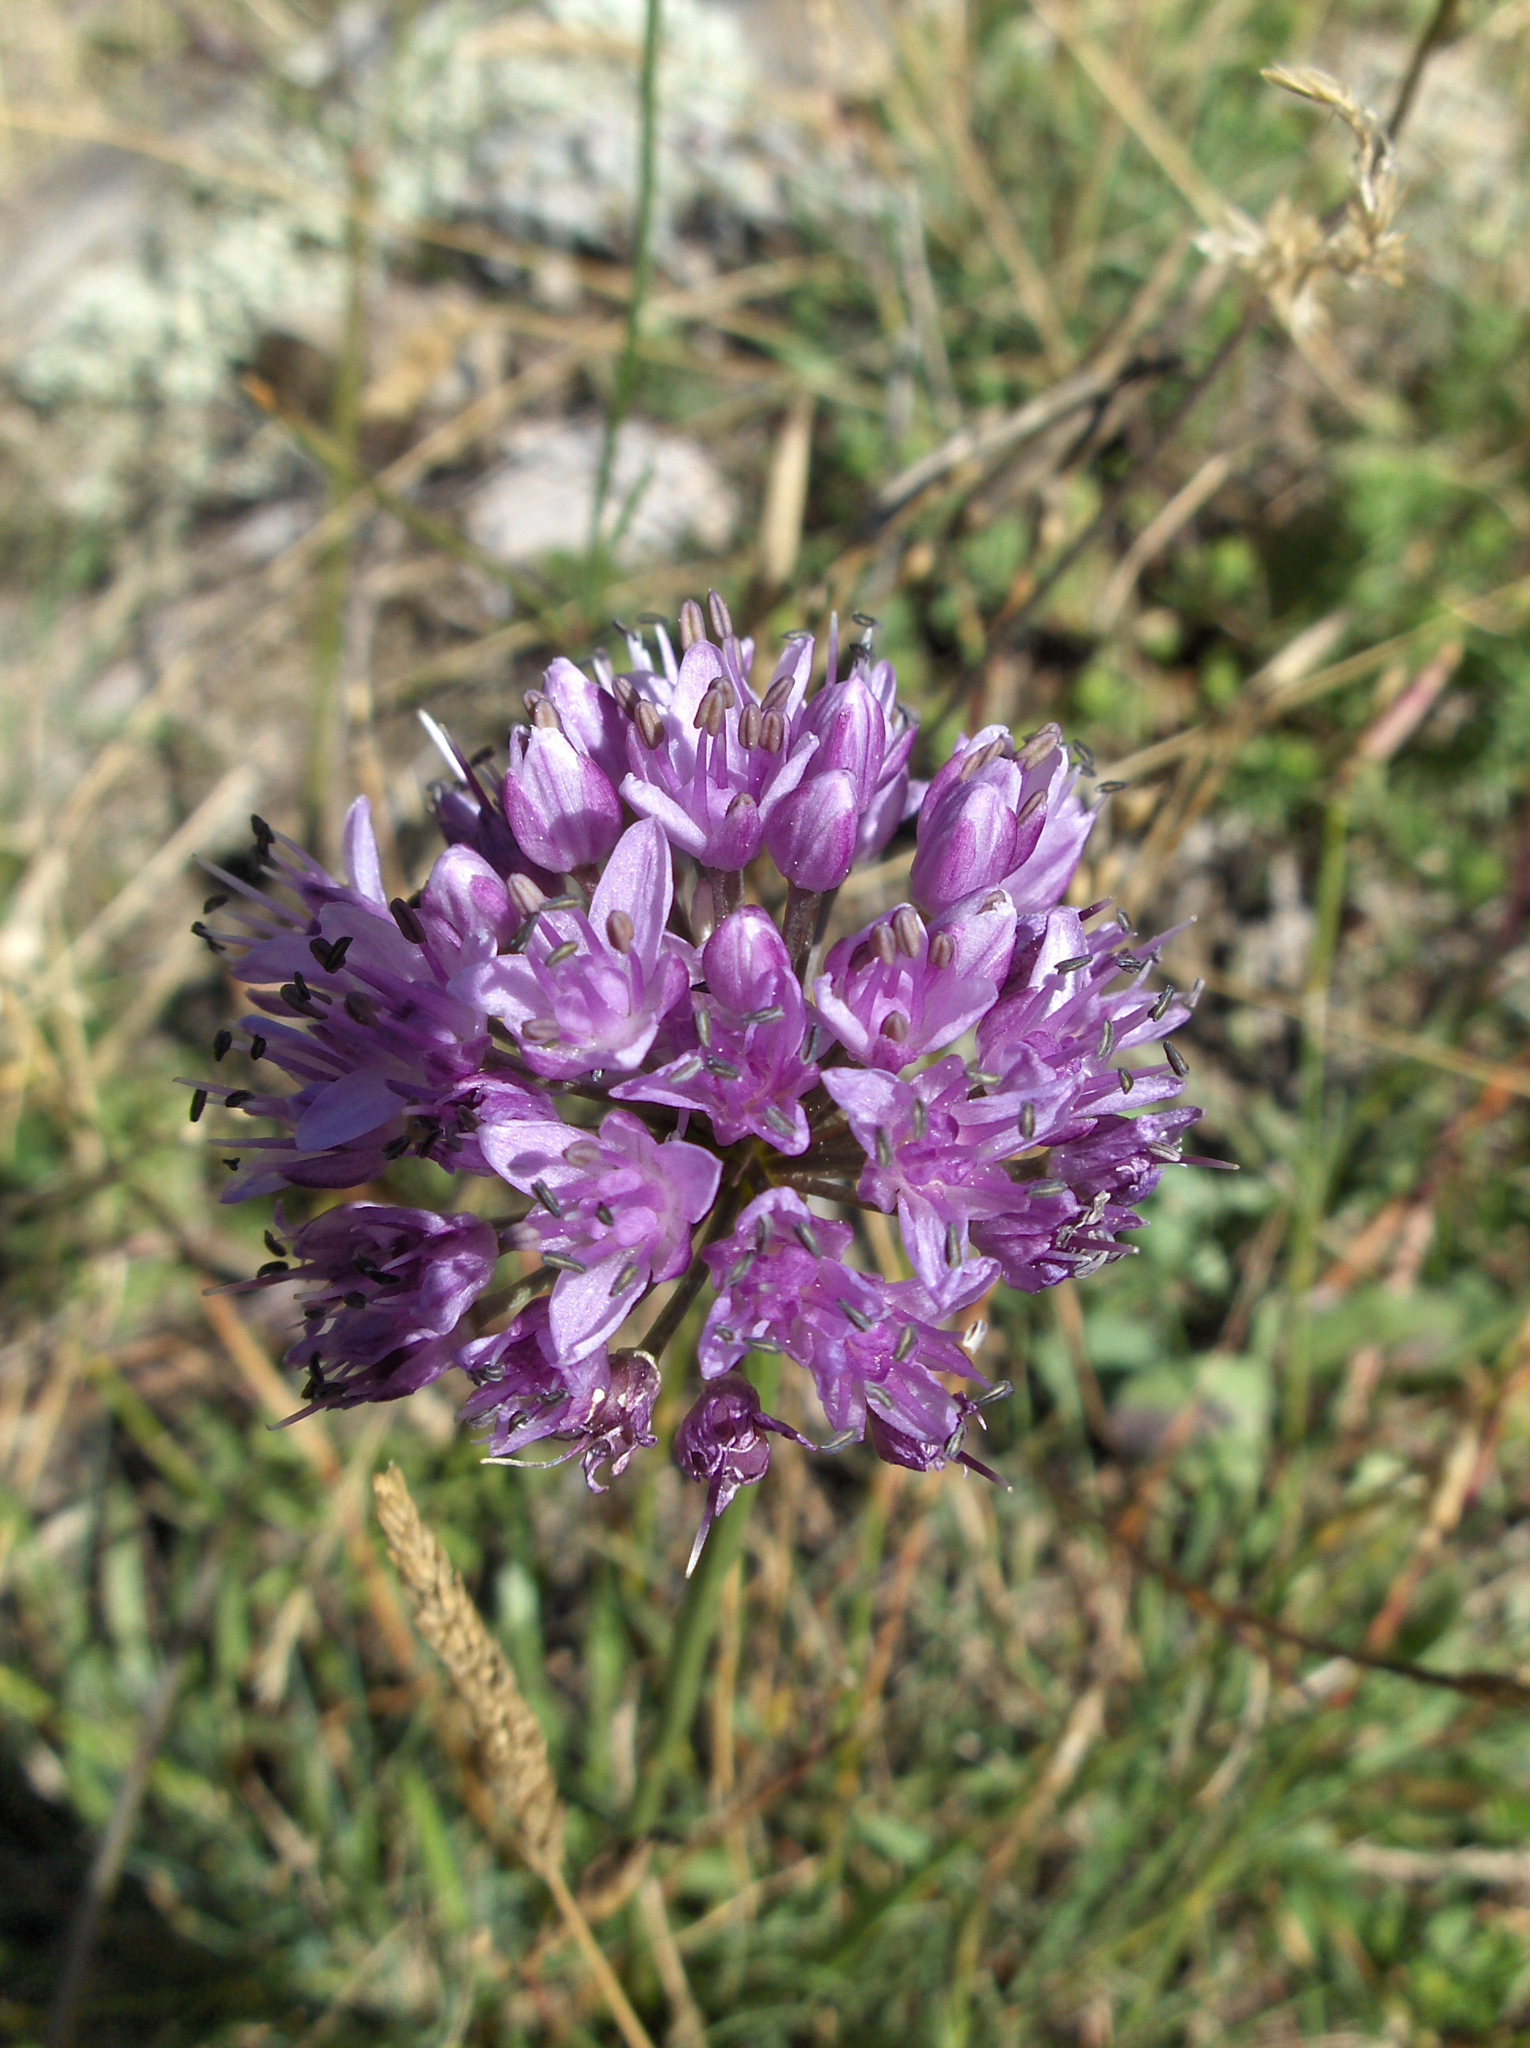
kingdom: Plantae
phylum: Tracheophyta
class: Liliopsida
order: Asparagales
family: Amaryllidaceae
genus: Allium
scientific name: Allium lusitanicum
